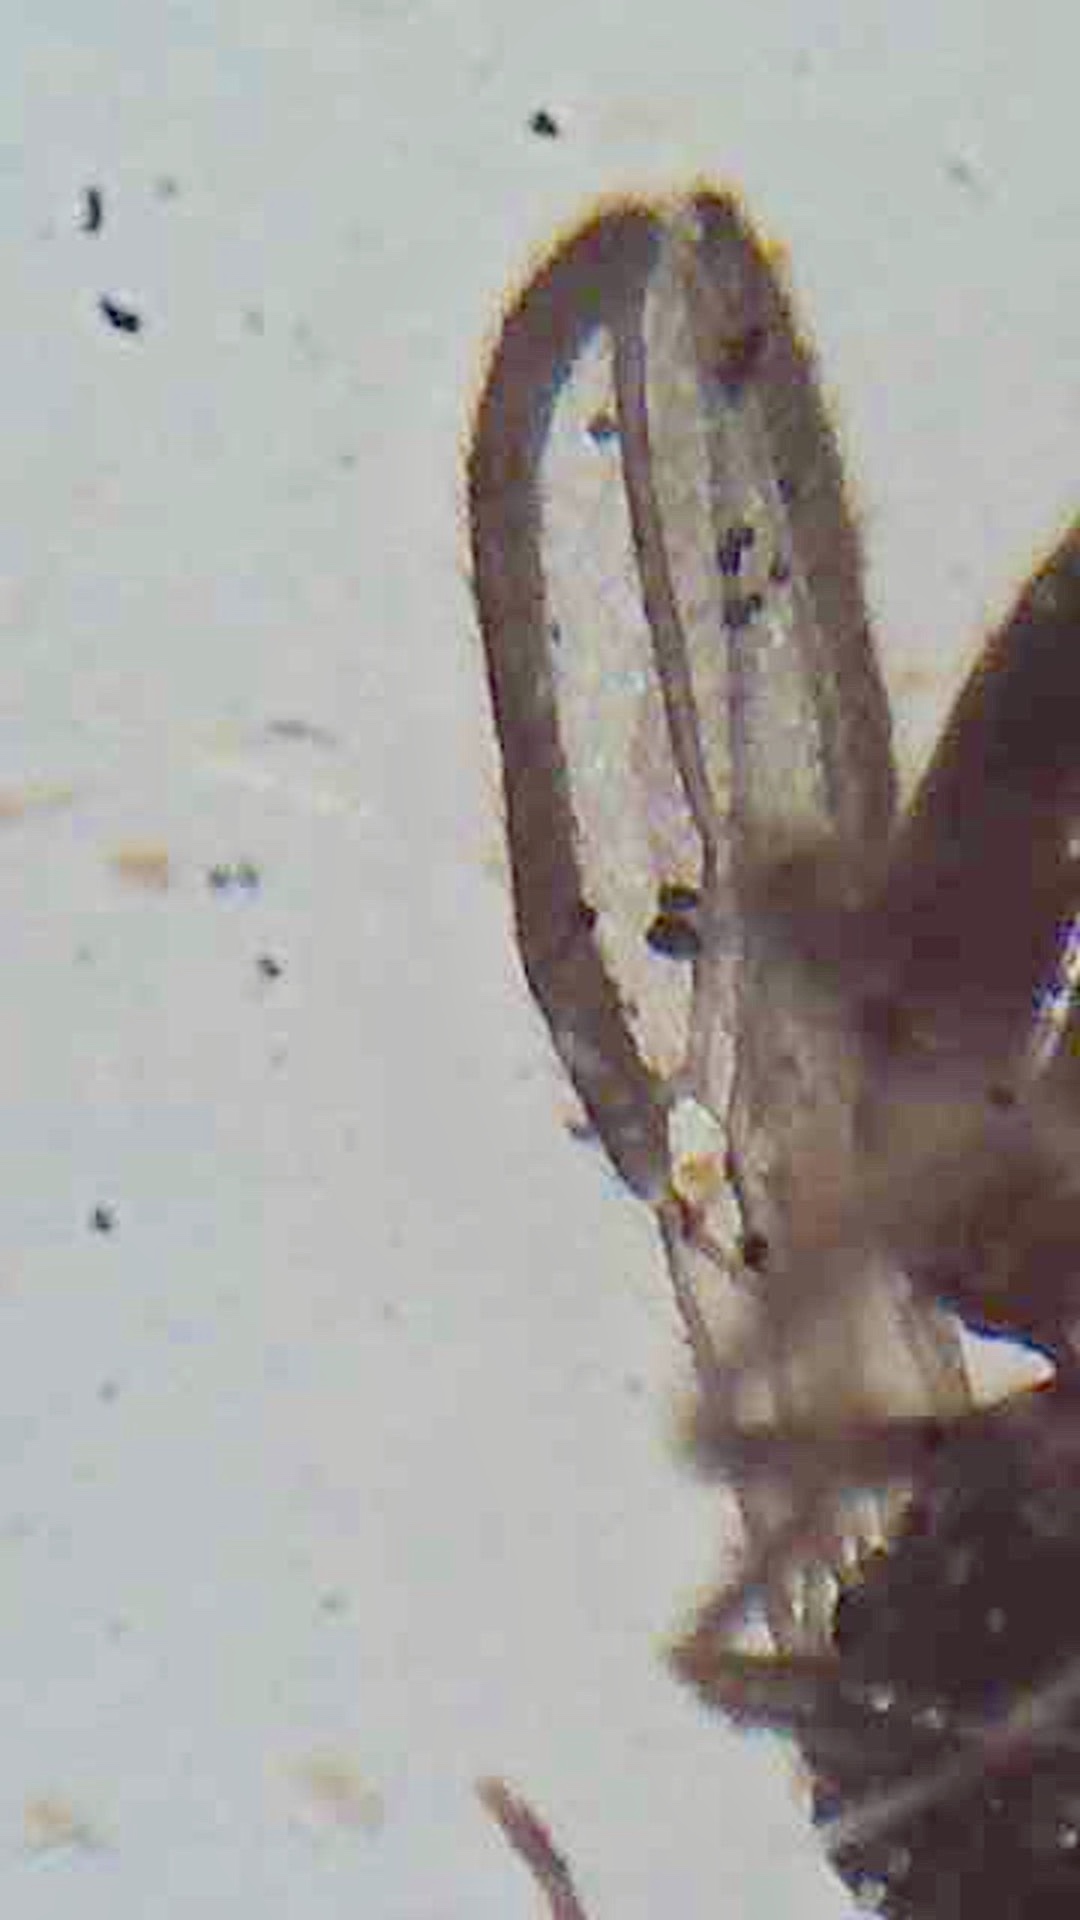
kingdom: Animalia
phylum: Arthropoda
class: Insecta
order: Hymenoptera
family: Braconidae
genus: Aspilota
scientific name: Aspilota albertica
